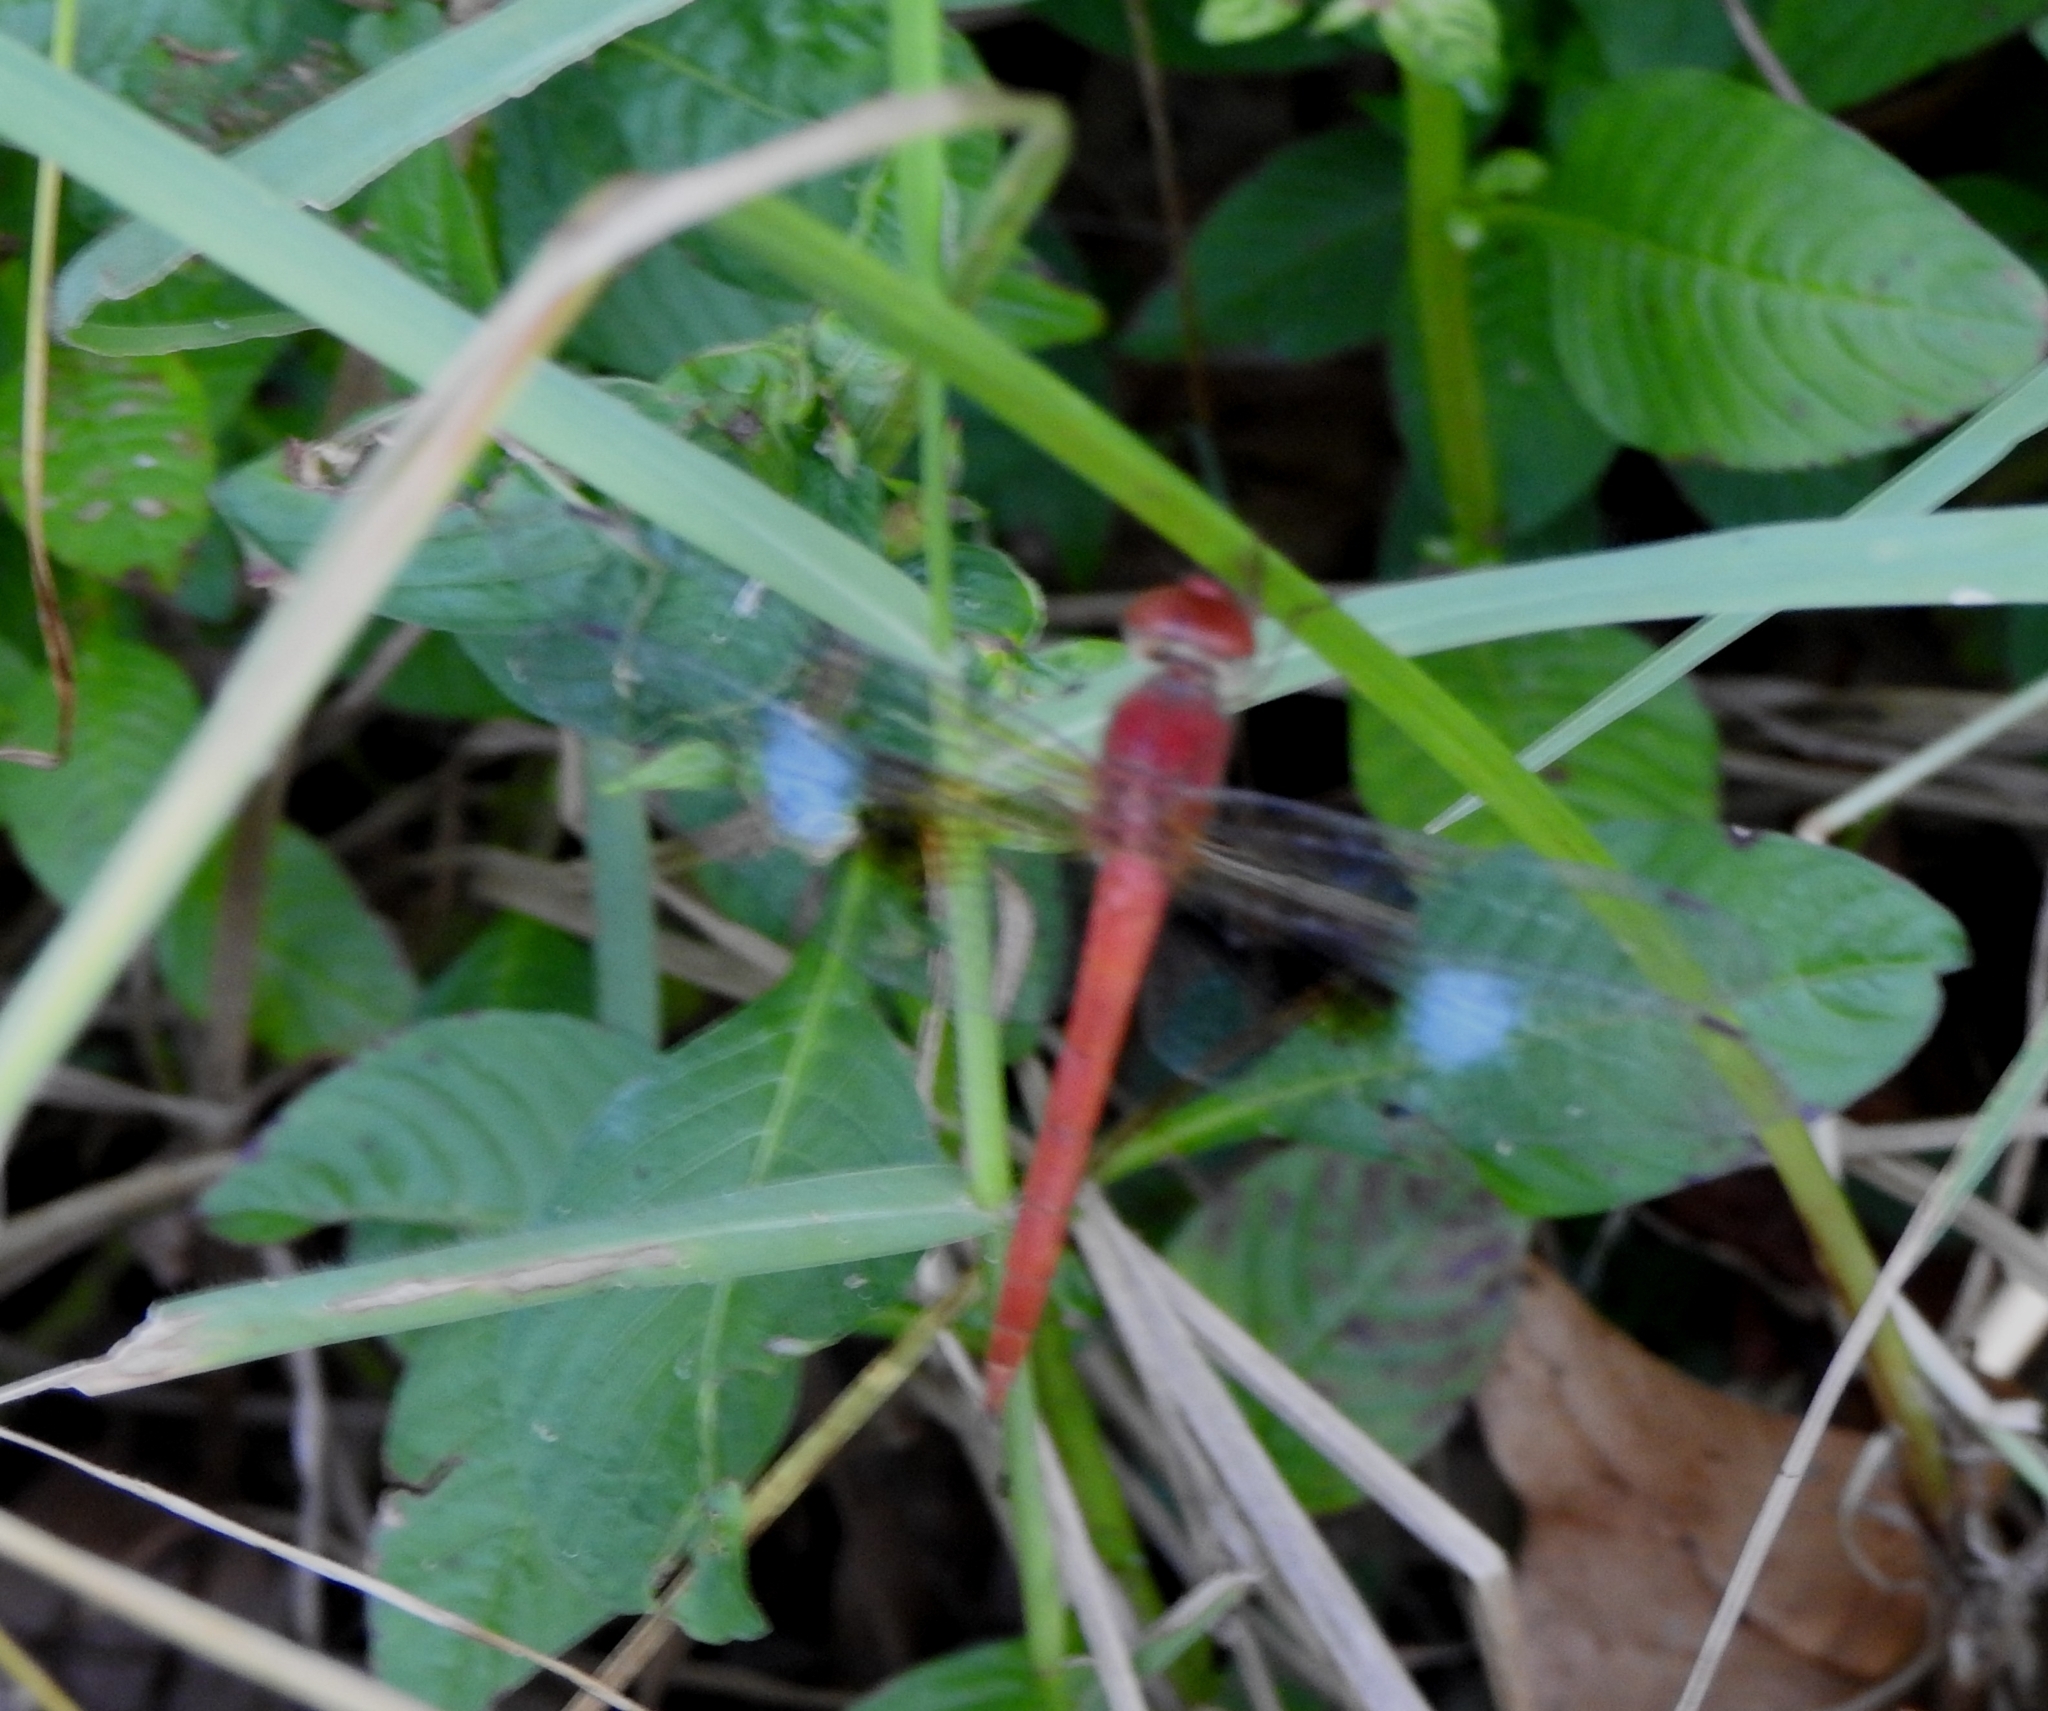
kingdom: Animalia
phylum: Arthropoda
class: Insecta
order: Odonata
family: Libellulidae
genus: Tholymis
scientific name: Tholymis tillarga
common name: Coral-tailed cloud wing
